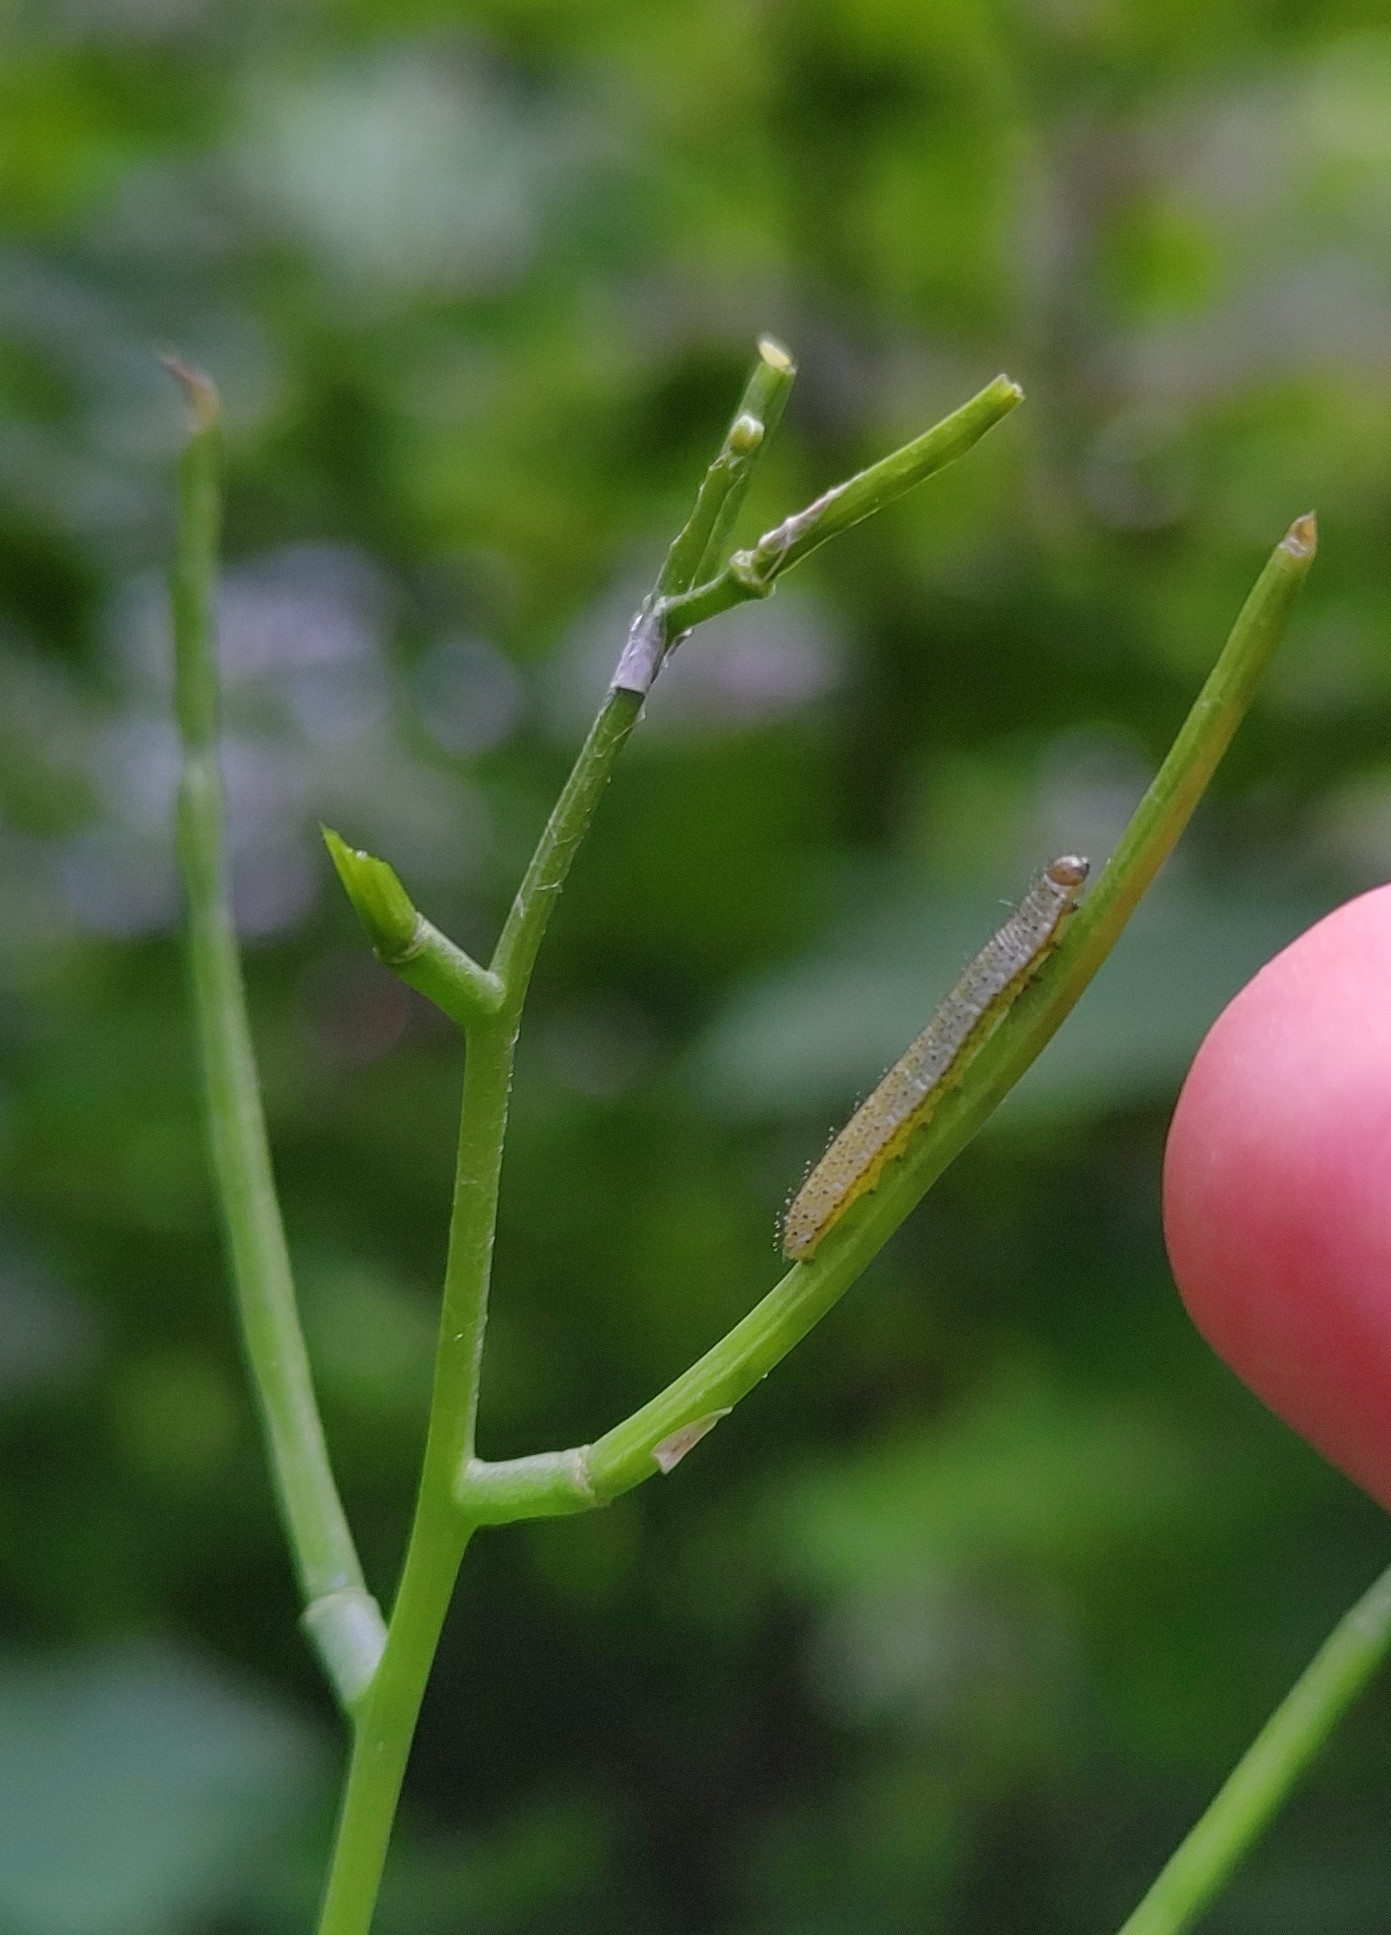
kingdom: Animalia
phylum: Arthropoda
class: Insecta
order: Lepidoptera
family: Pieridae
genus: Anthocharis
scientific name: Anthocharis cardamines
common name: Orange-tip
